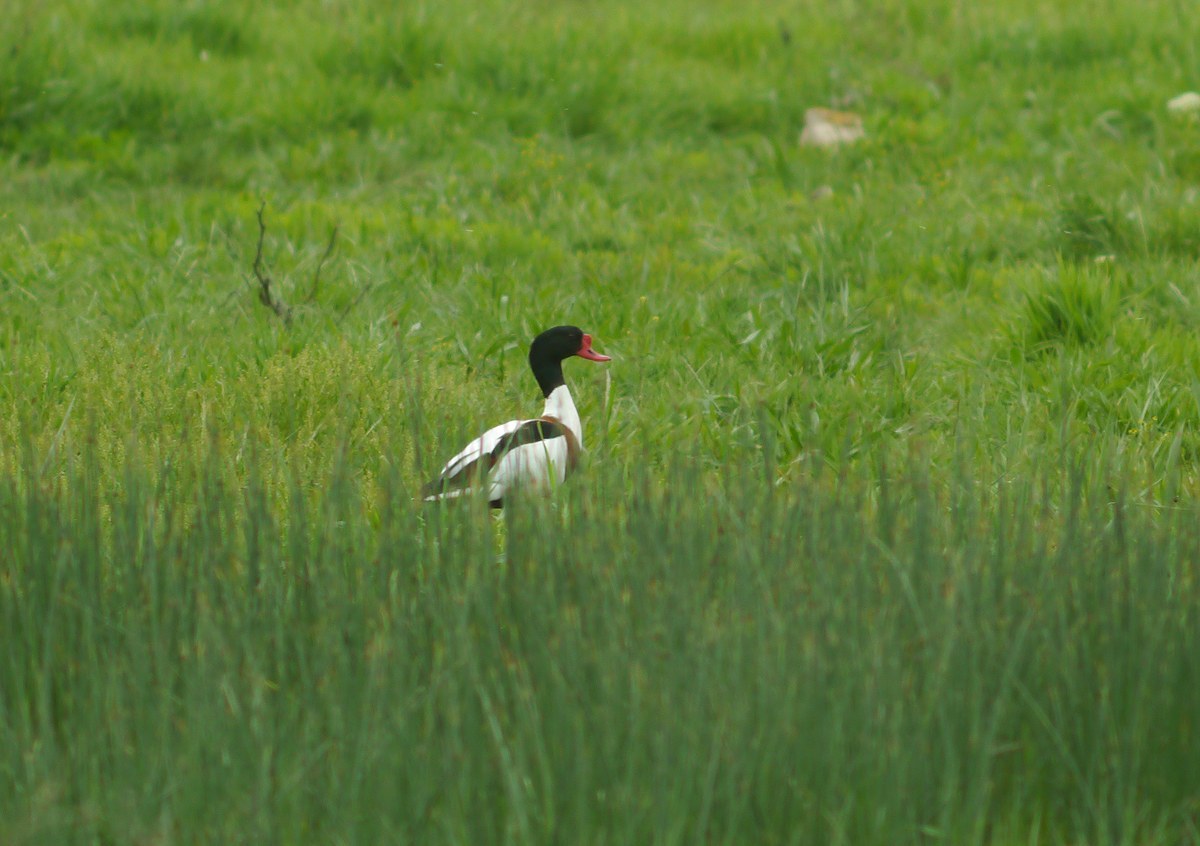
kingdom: Animalia
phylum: Chordata
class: Aves
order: Anseriformes
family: Anatidae
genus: Tadorna
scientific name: Tadorna tadorna
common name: Common shelduck
